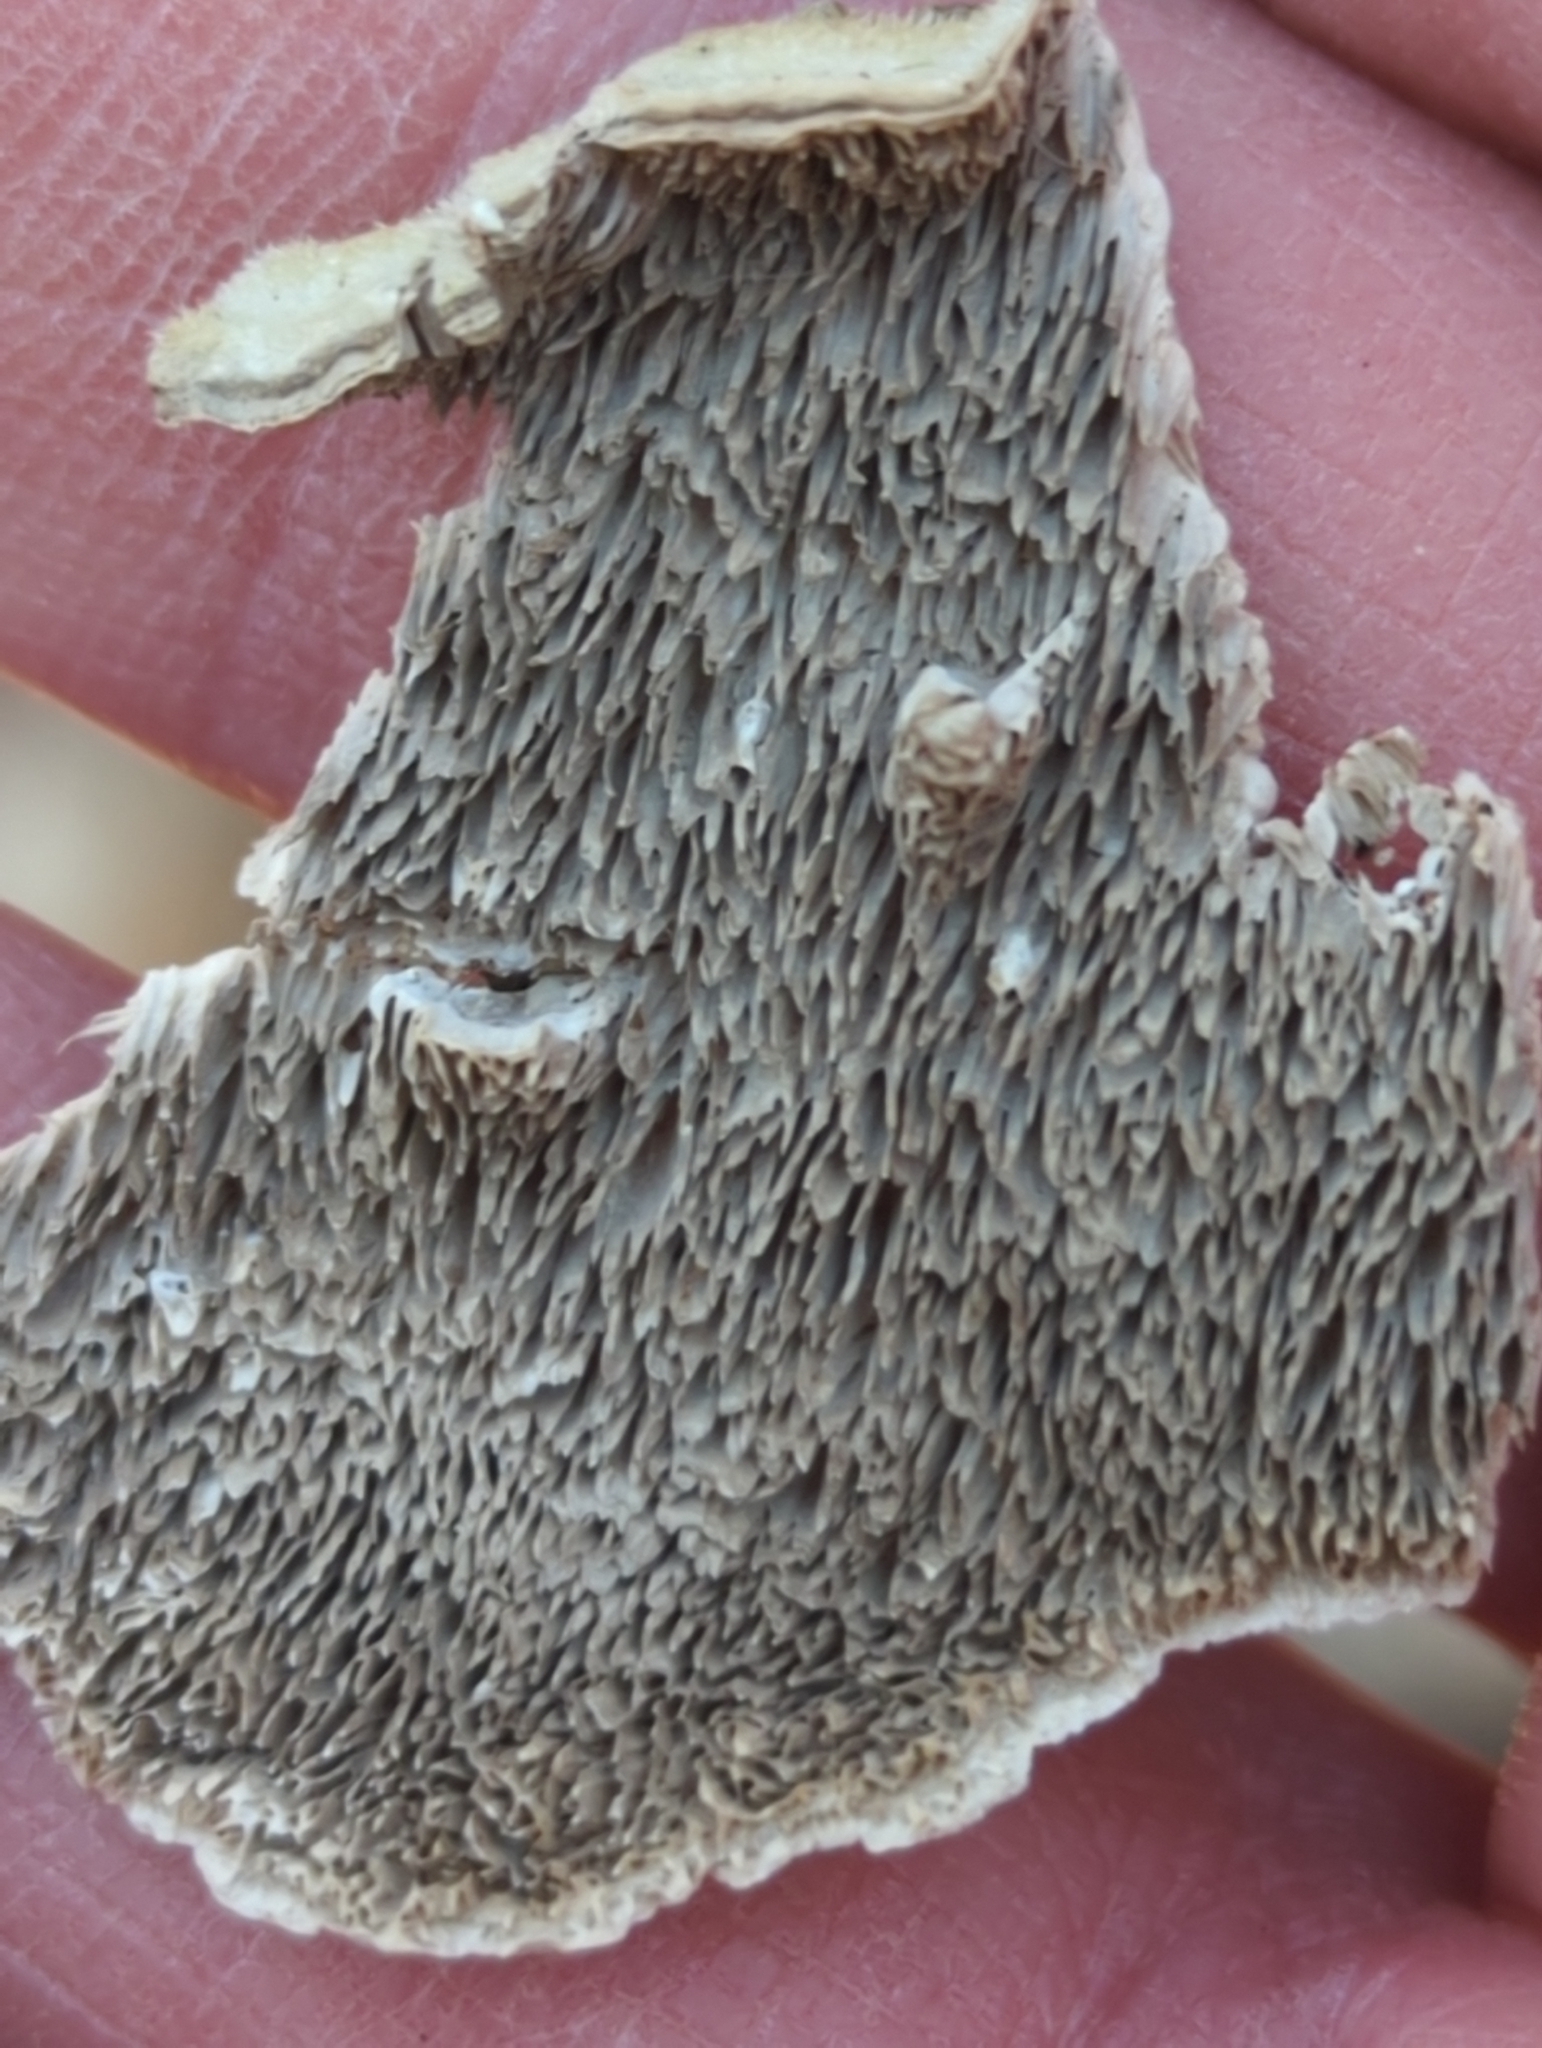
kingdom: Fungi
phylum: Basidiomycota
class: Agaricomycetes
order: Polyporales
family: Cerrenaceae
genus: Cerrena
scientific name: Cerrena unicolor
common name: Mossy maze polypore
